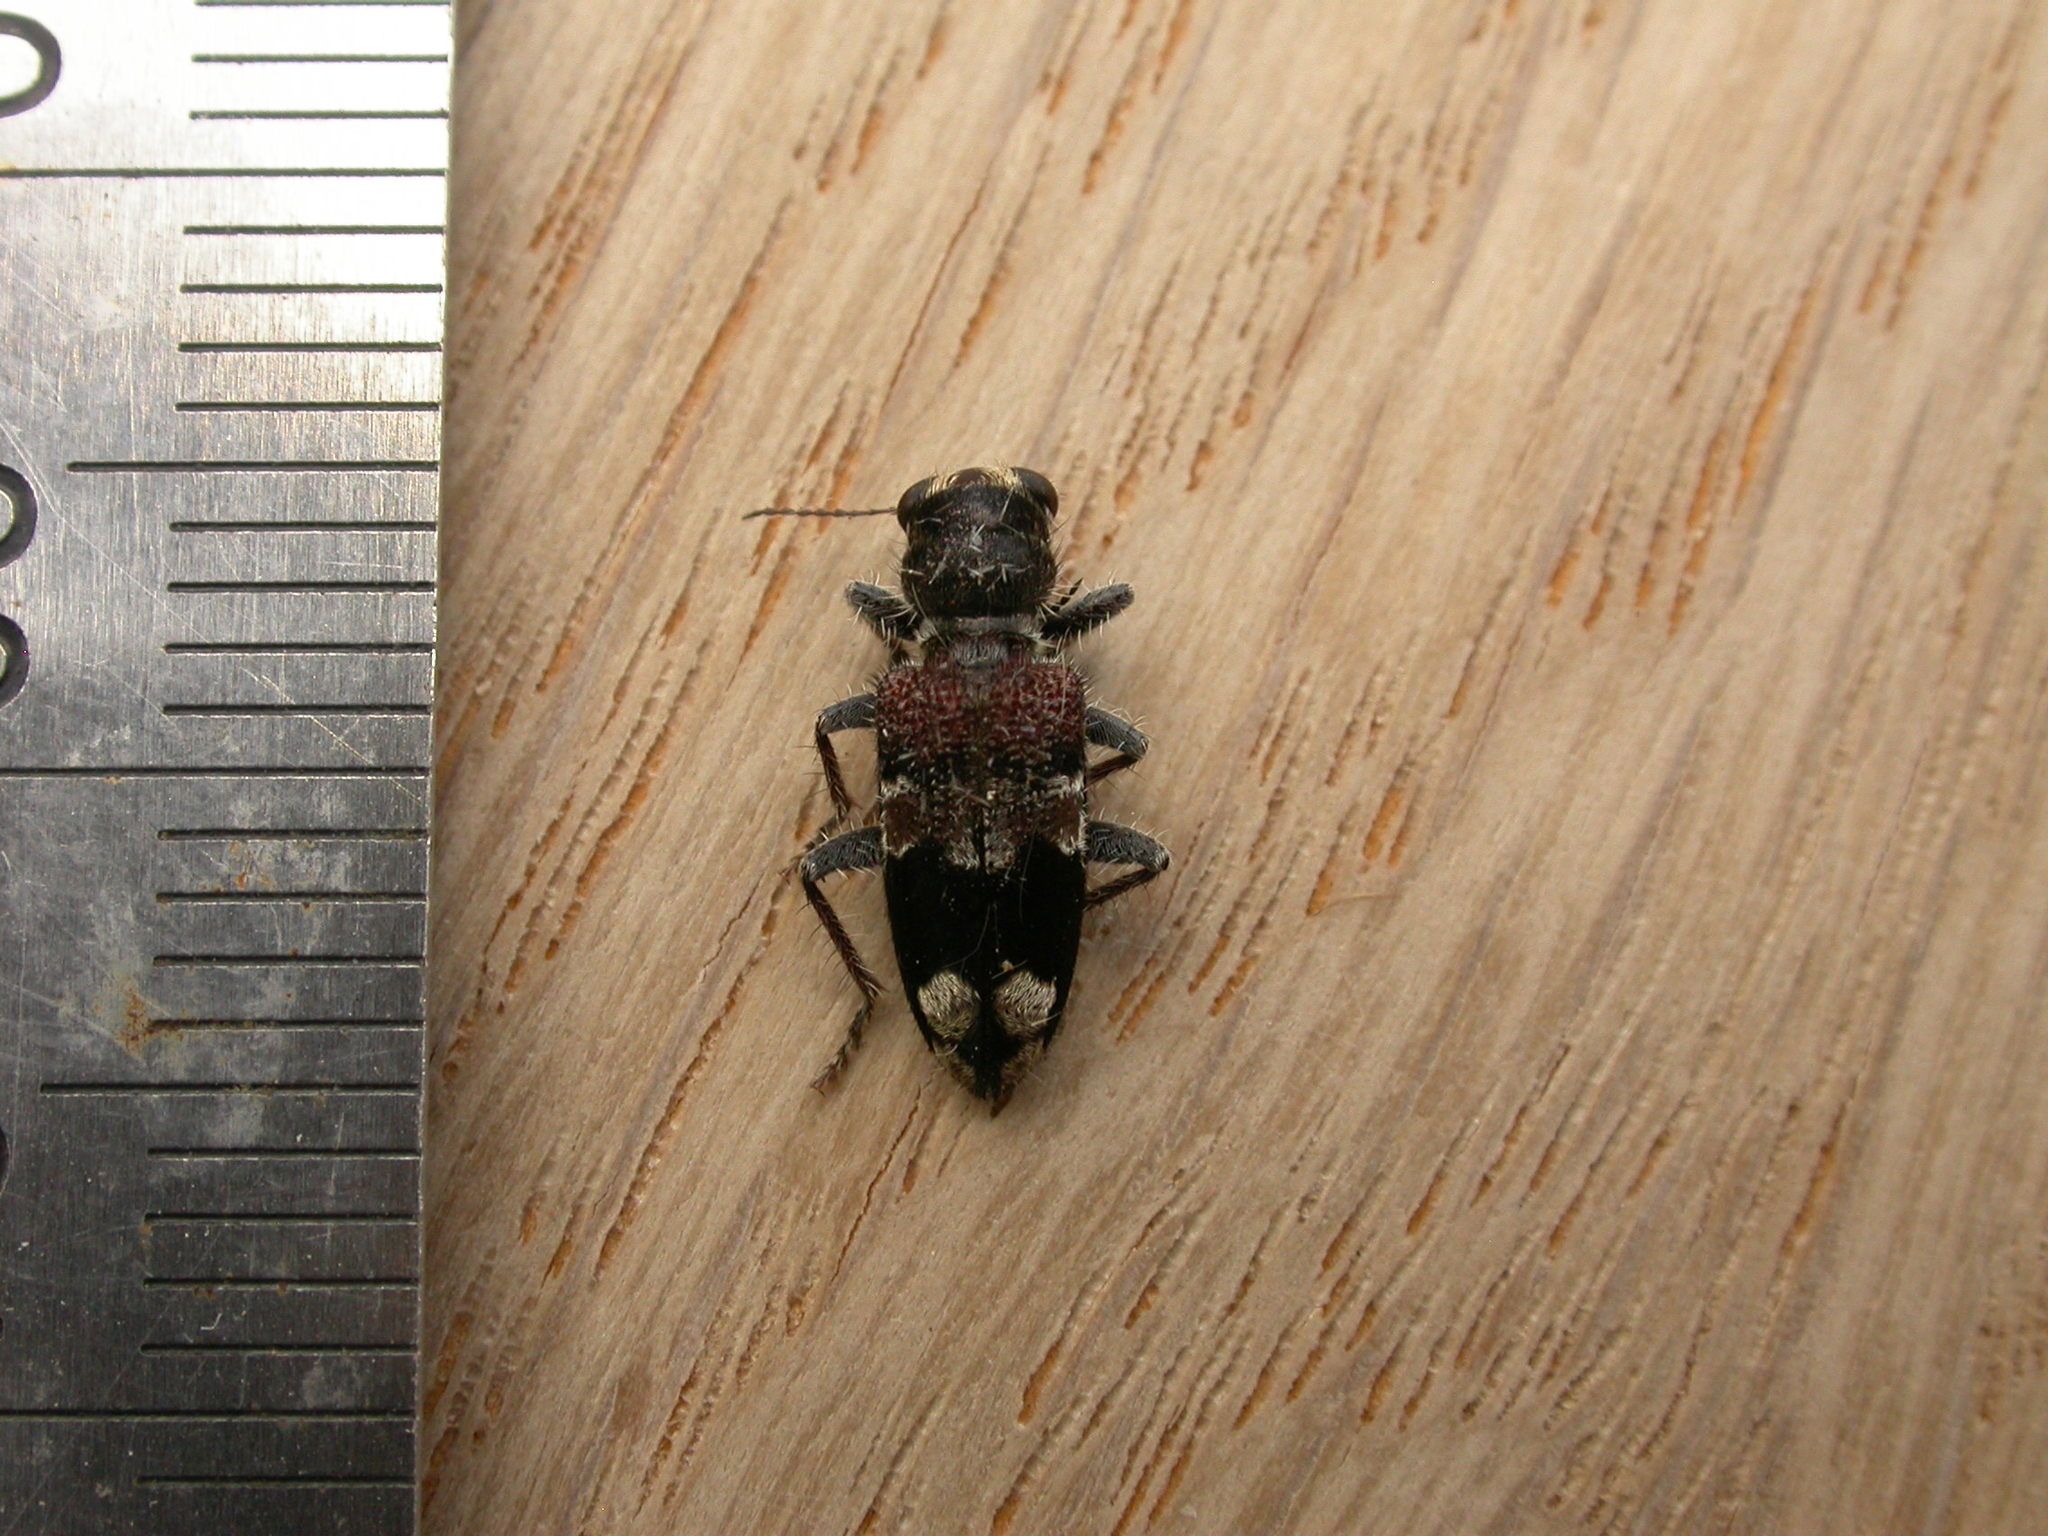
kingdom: Animalia
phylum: Arthropoda
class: Insecta
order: Coleoptera
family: Cleridae
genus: Clerus
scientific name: Clerus
